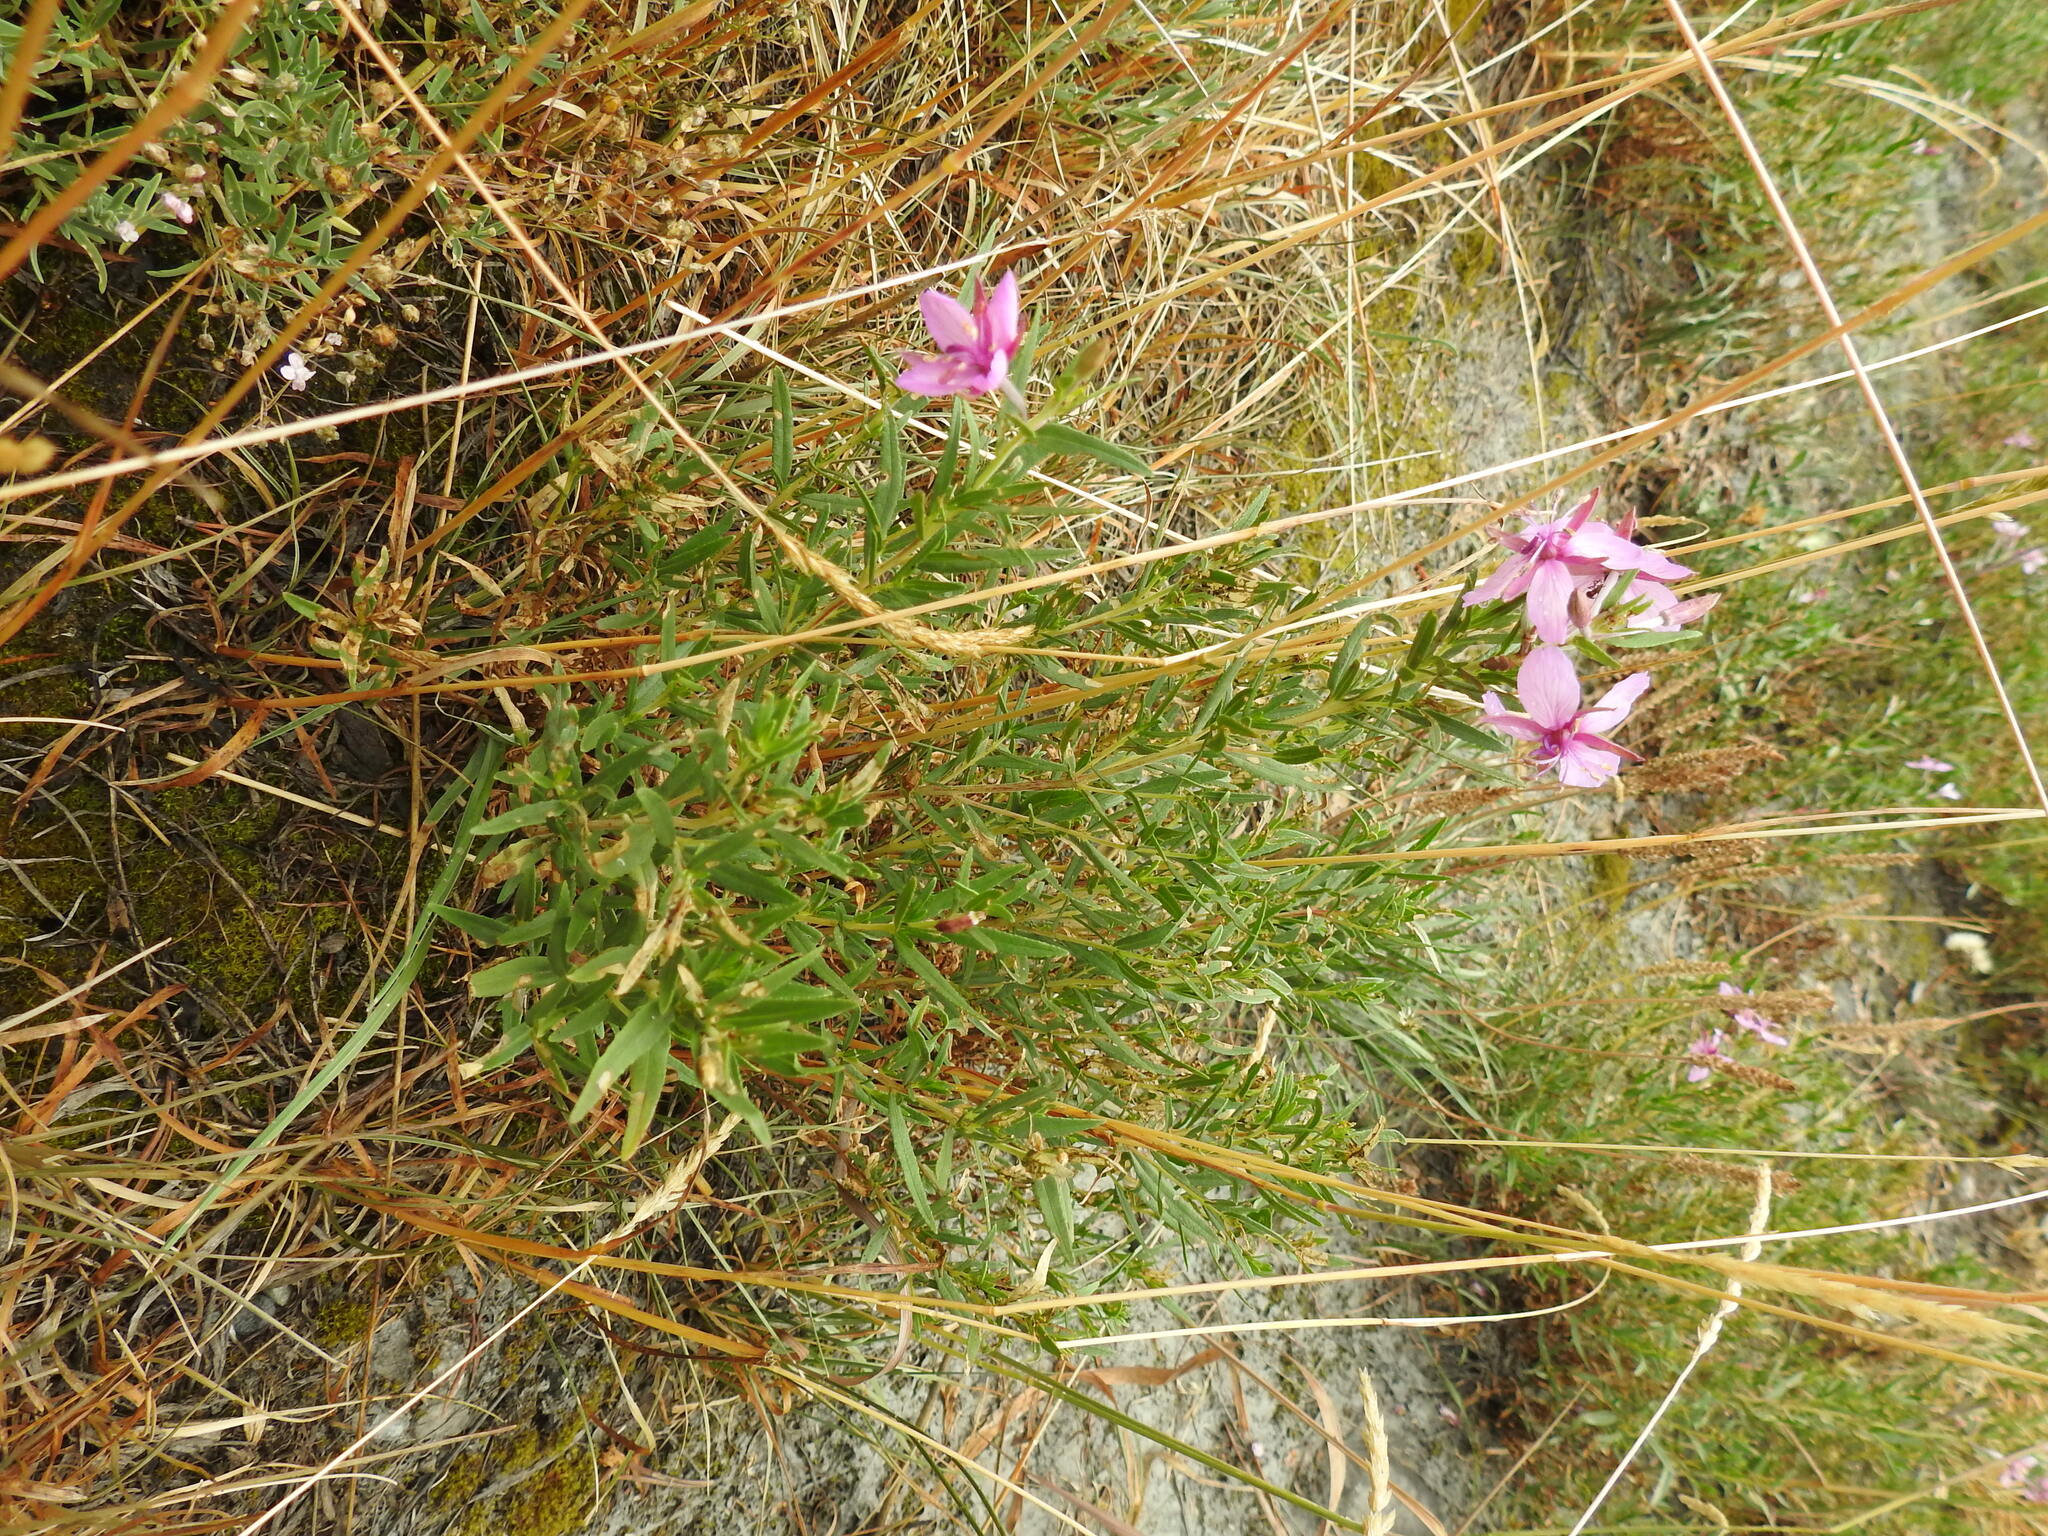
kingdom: Plantae
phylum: Tracheophyta
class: Magnoliopsida
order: Myrtales
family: Onagraceae
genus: Chamaenerion
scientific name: Chamaenerion fleischeri
